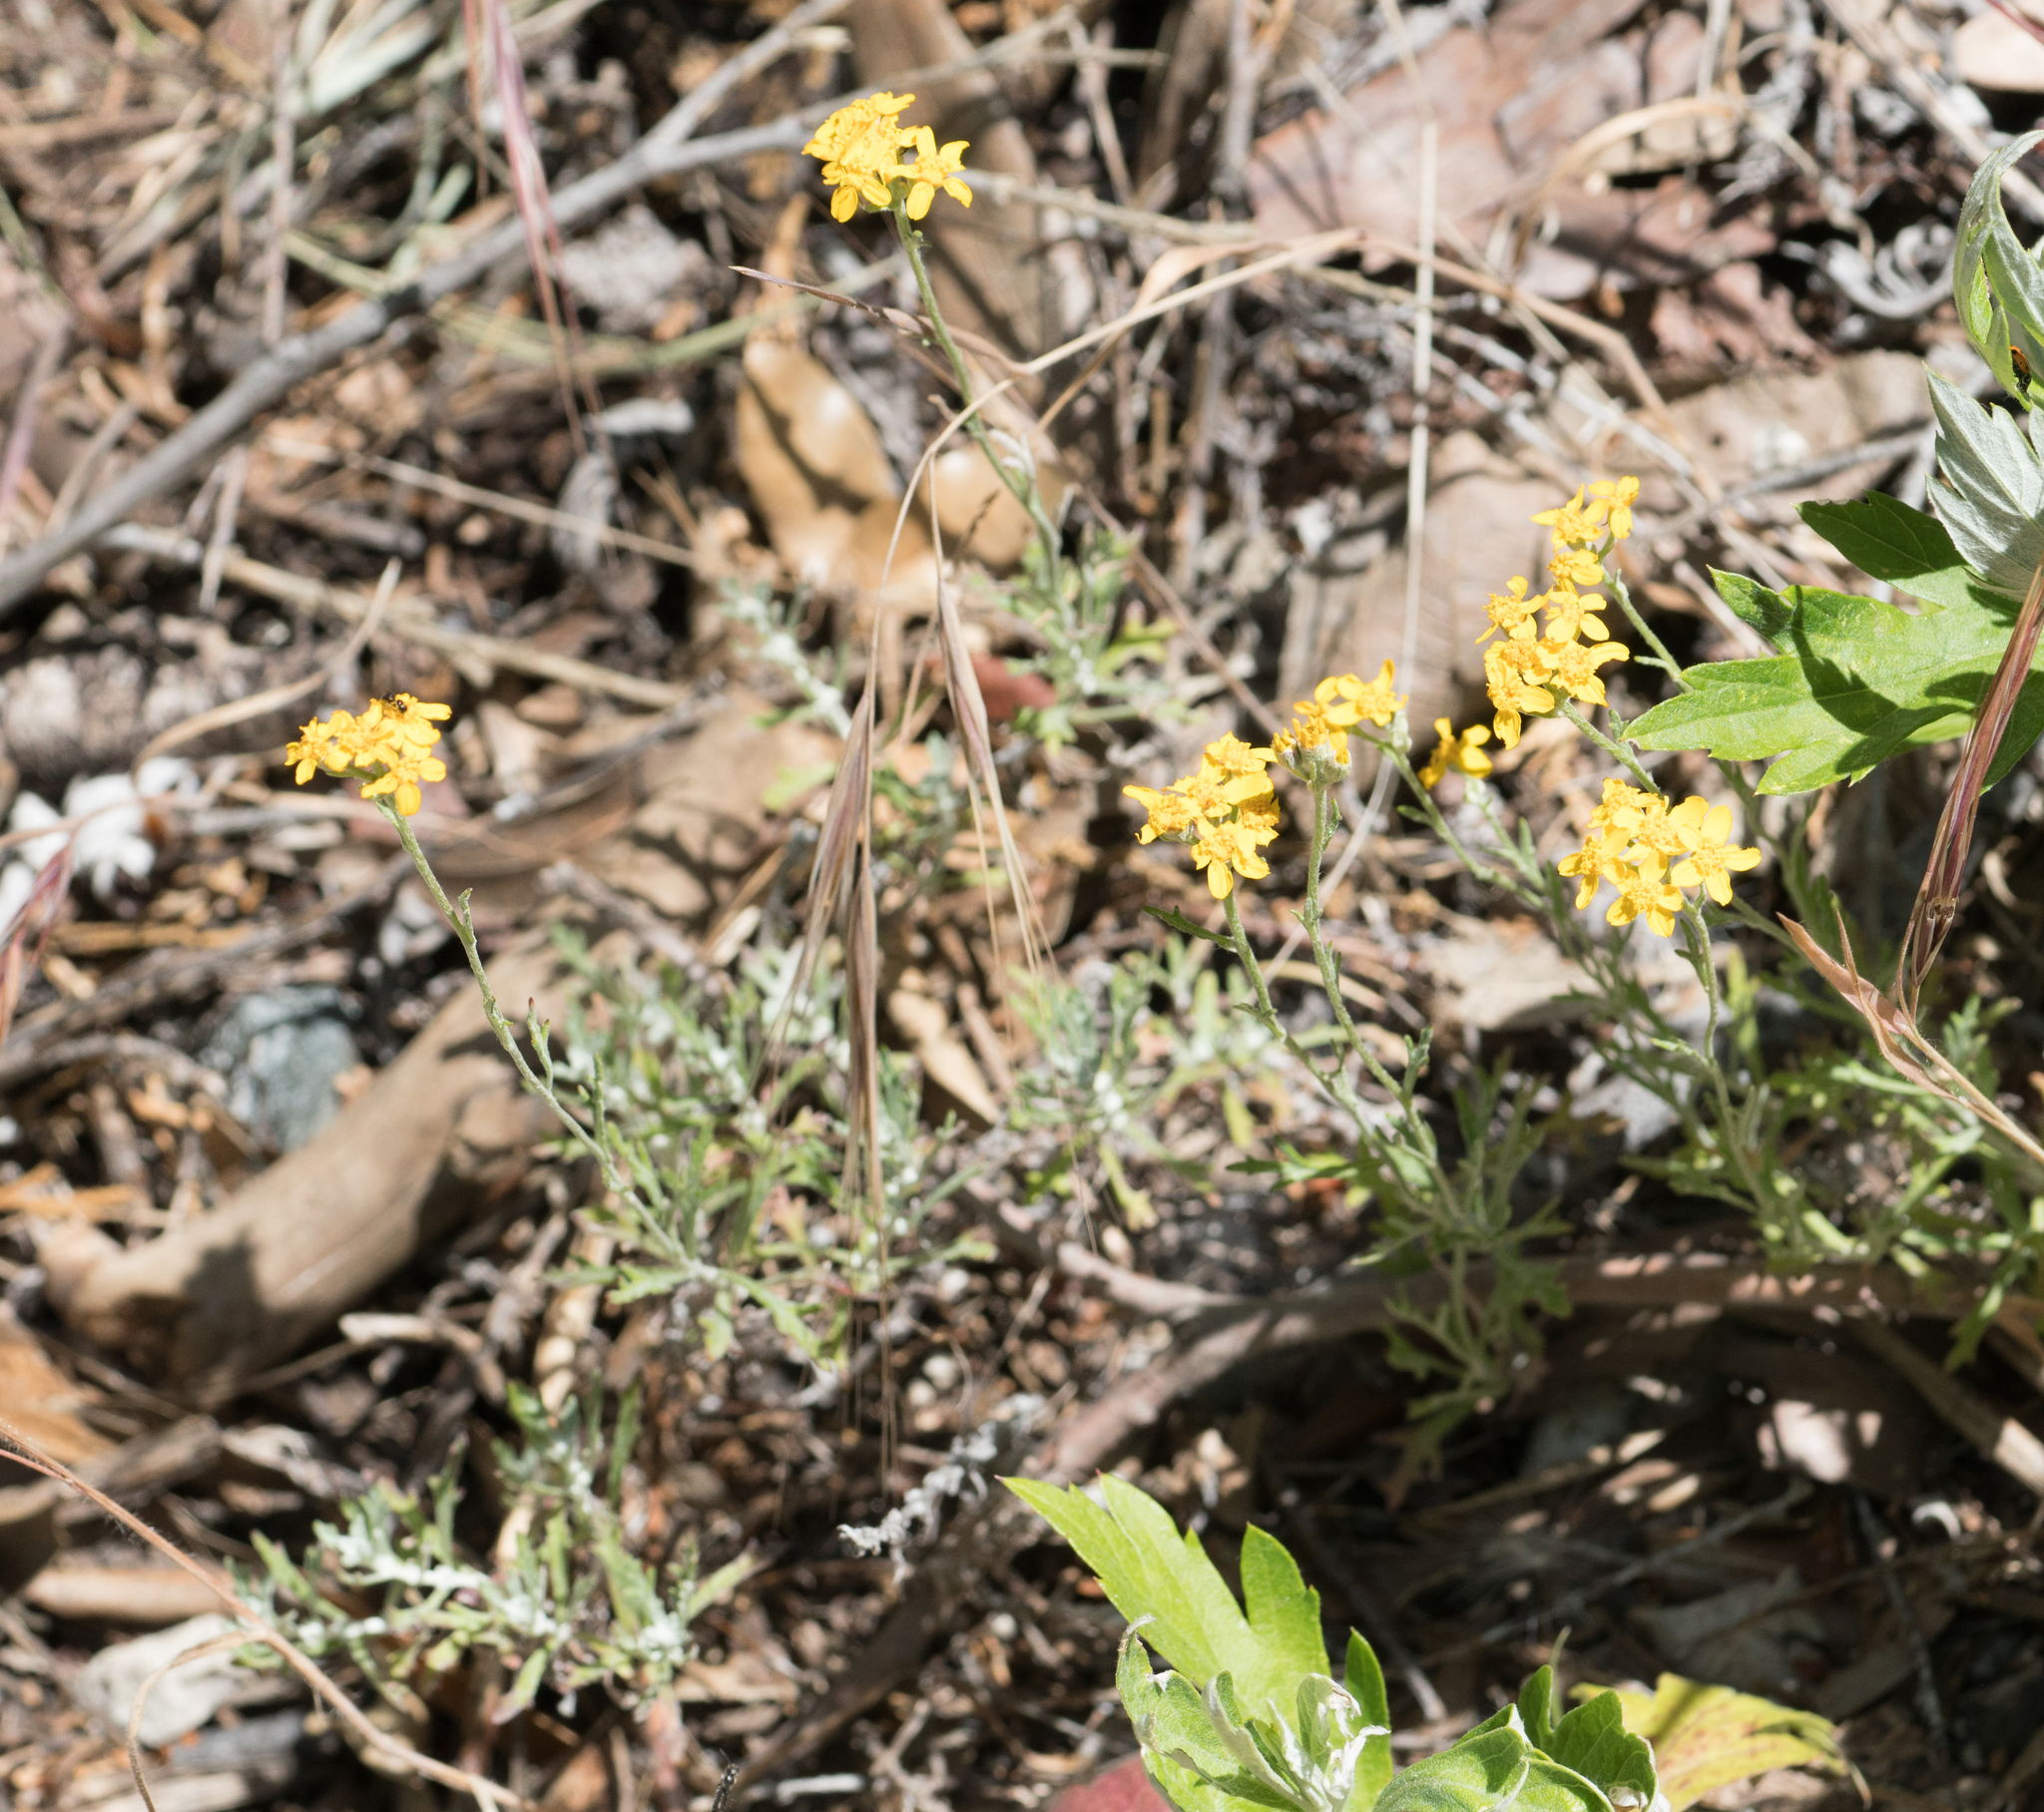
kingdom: Plantae
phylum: Tracheophyta
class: Magnoliopsida
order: Asterales
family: Asteraceae
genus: Eriophyllum
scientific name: Eriophyllum confertiflorum
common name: Golden-yarrow
